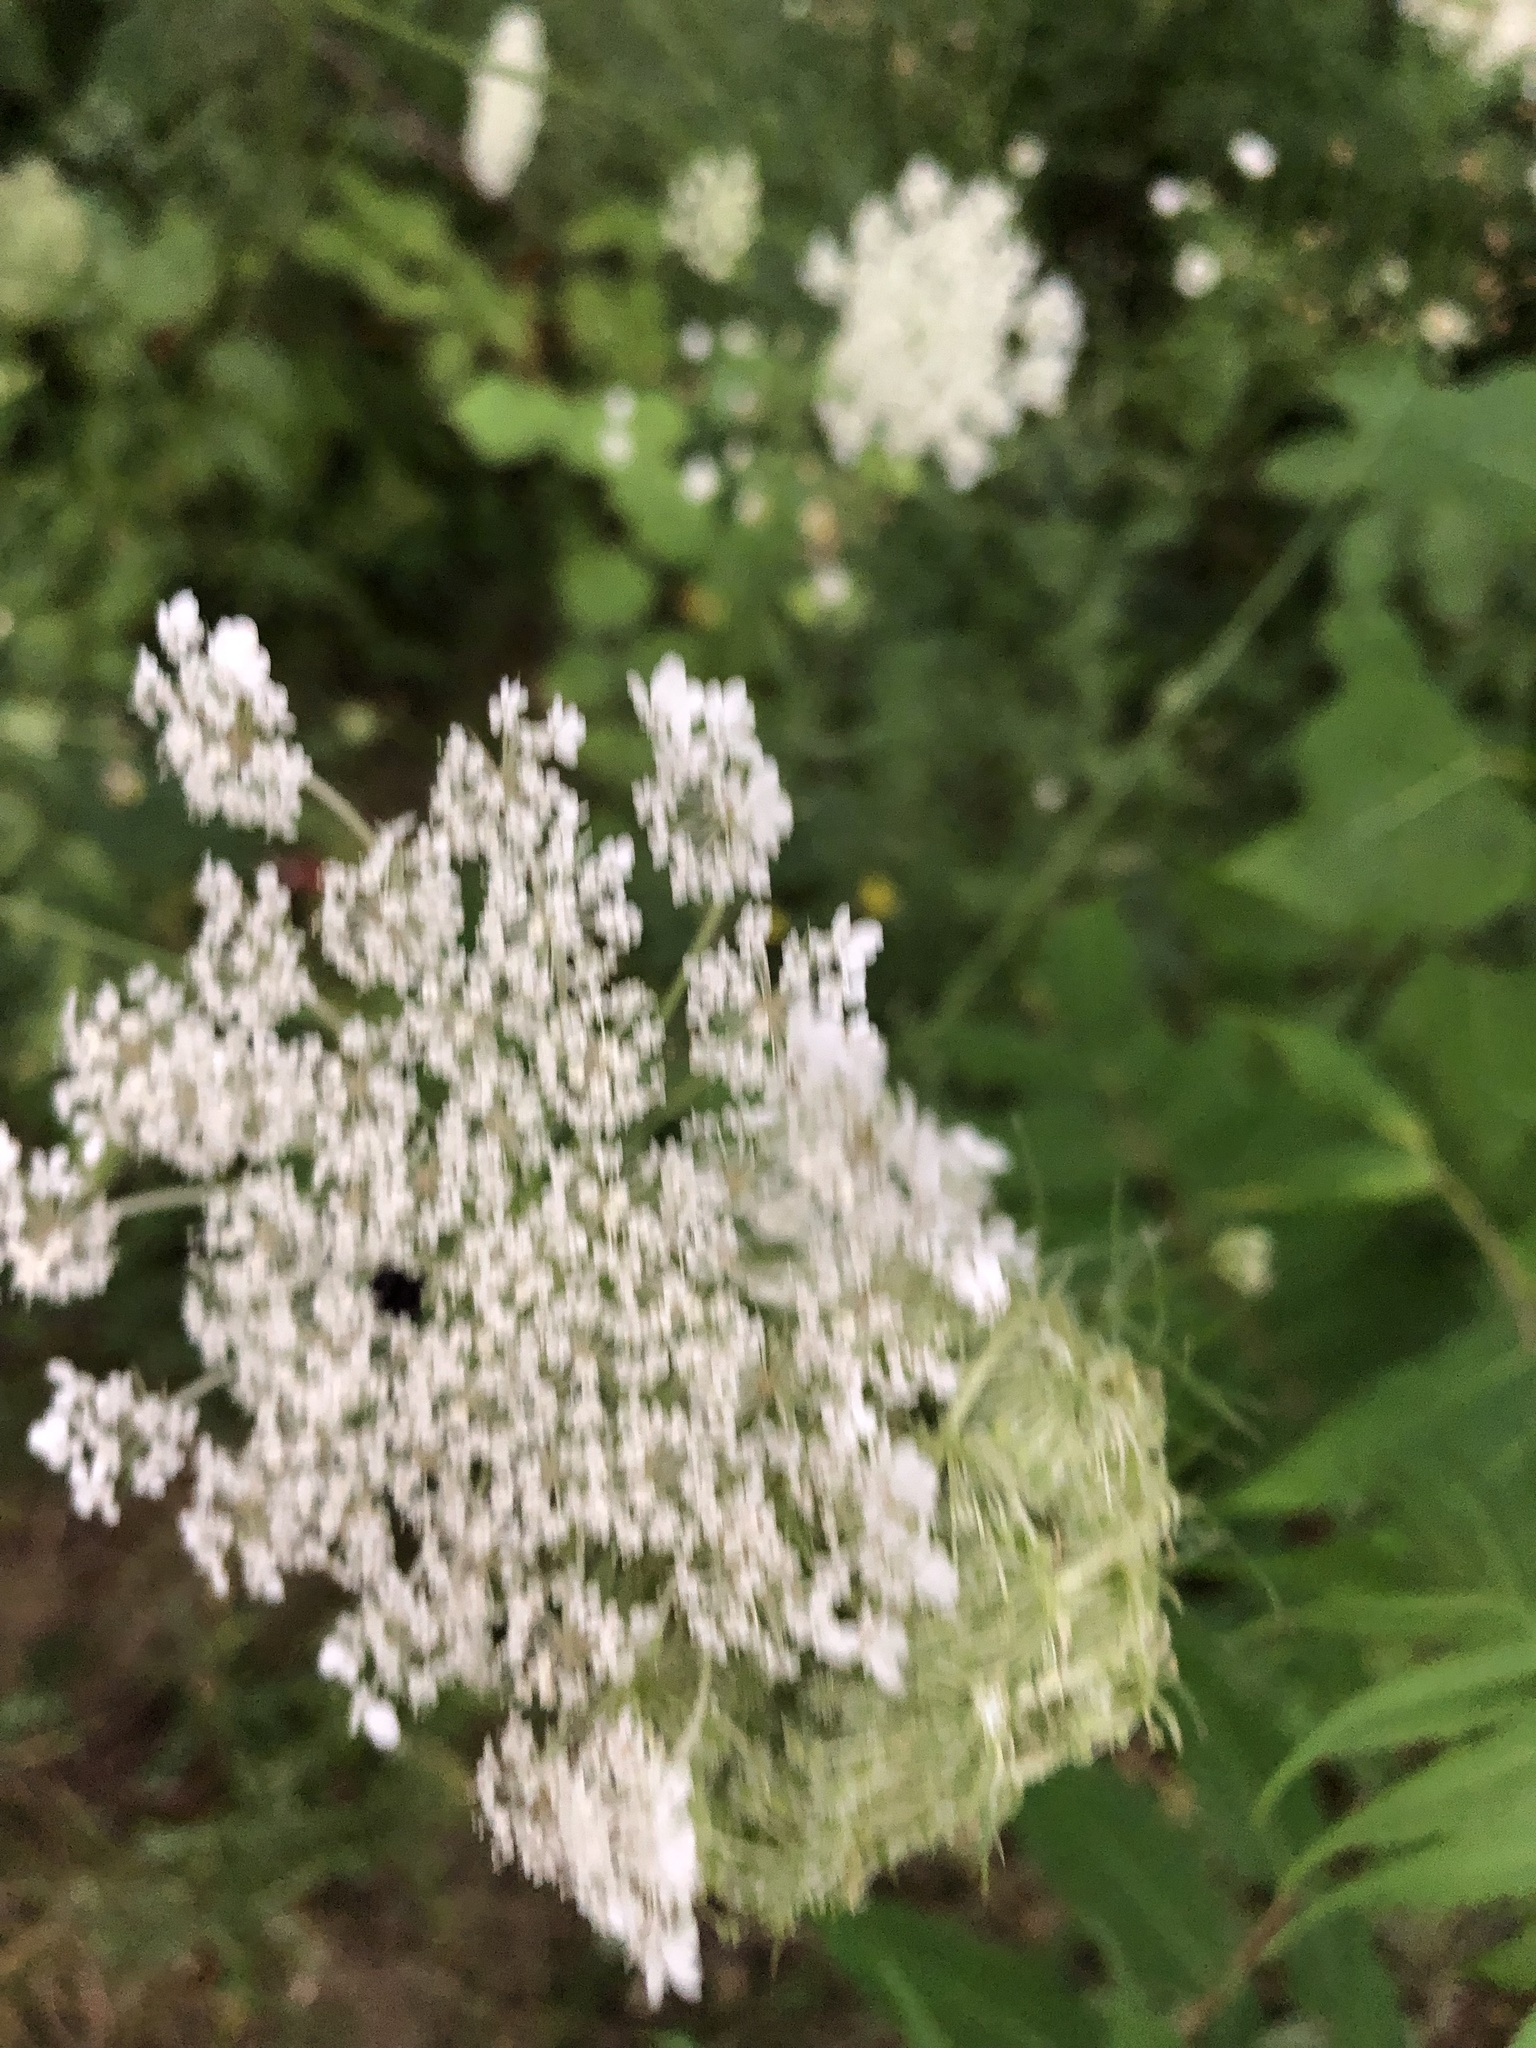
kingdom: Plantae
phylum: Tracheophyta
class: Magnoliopsida
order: Apiales
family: Apiaceae
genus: Daucus
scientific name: Daucus carota
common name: Wild carrot
